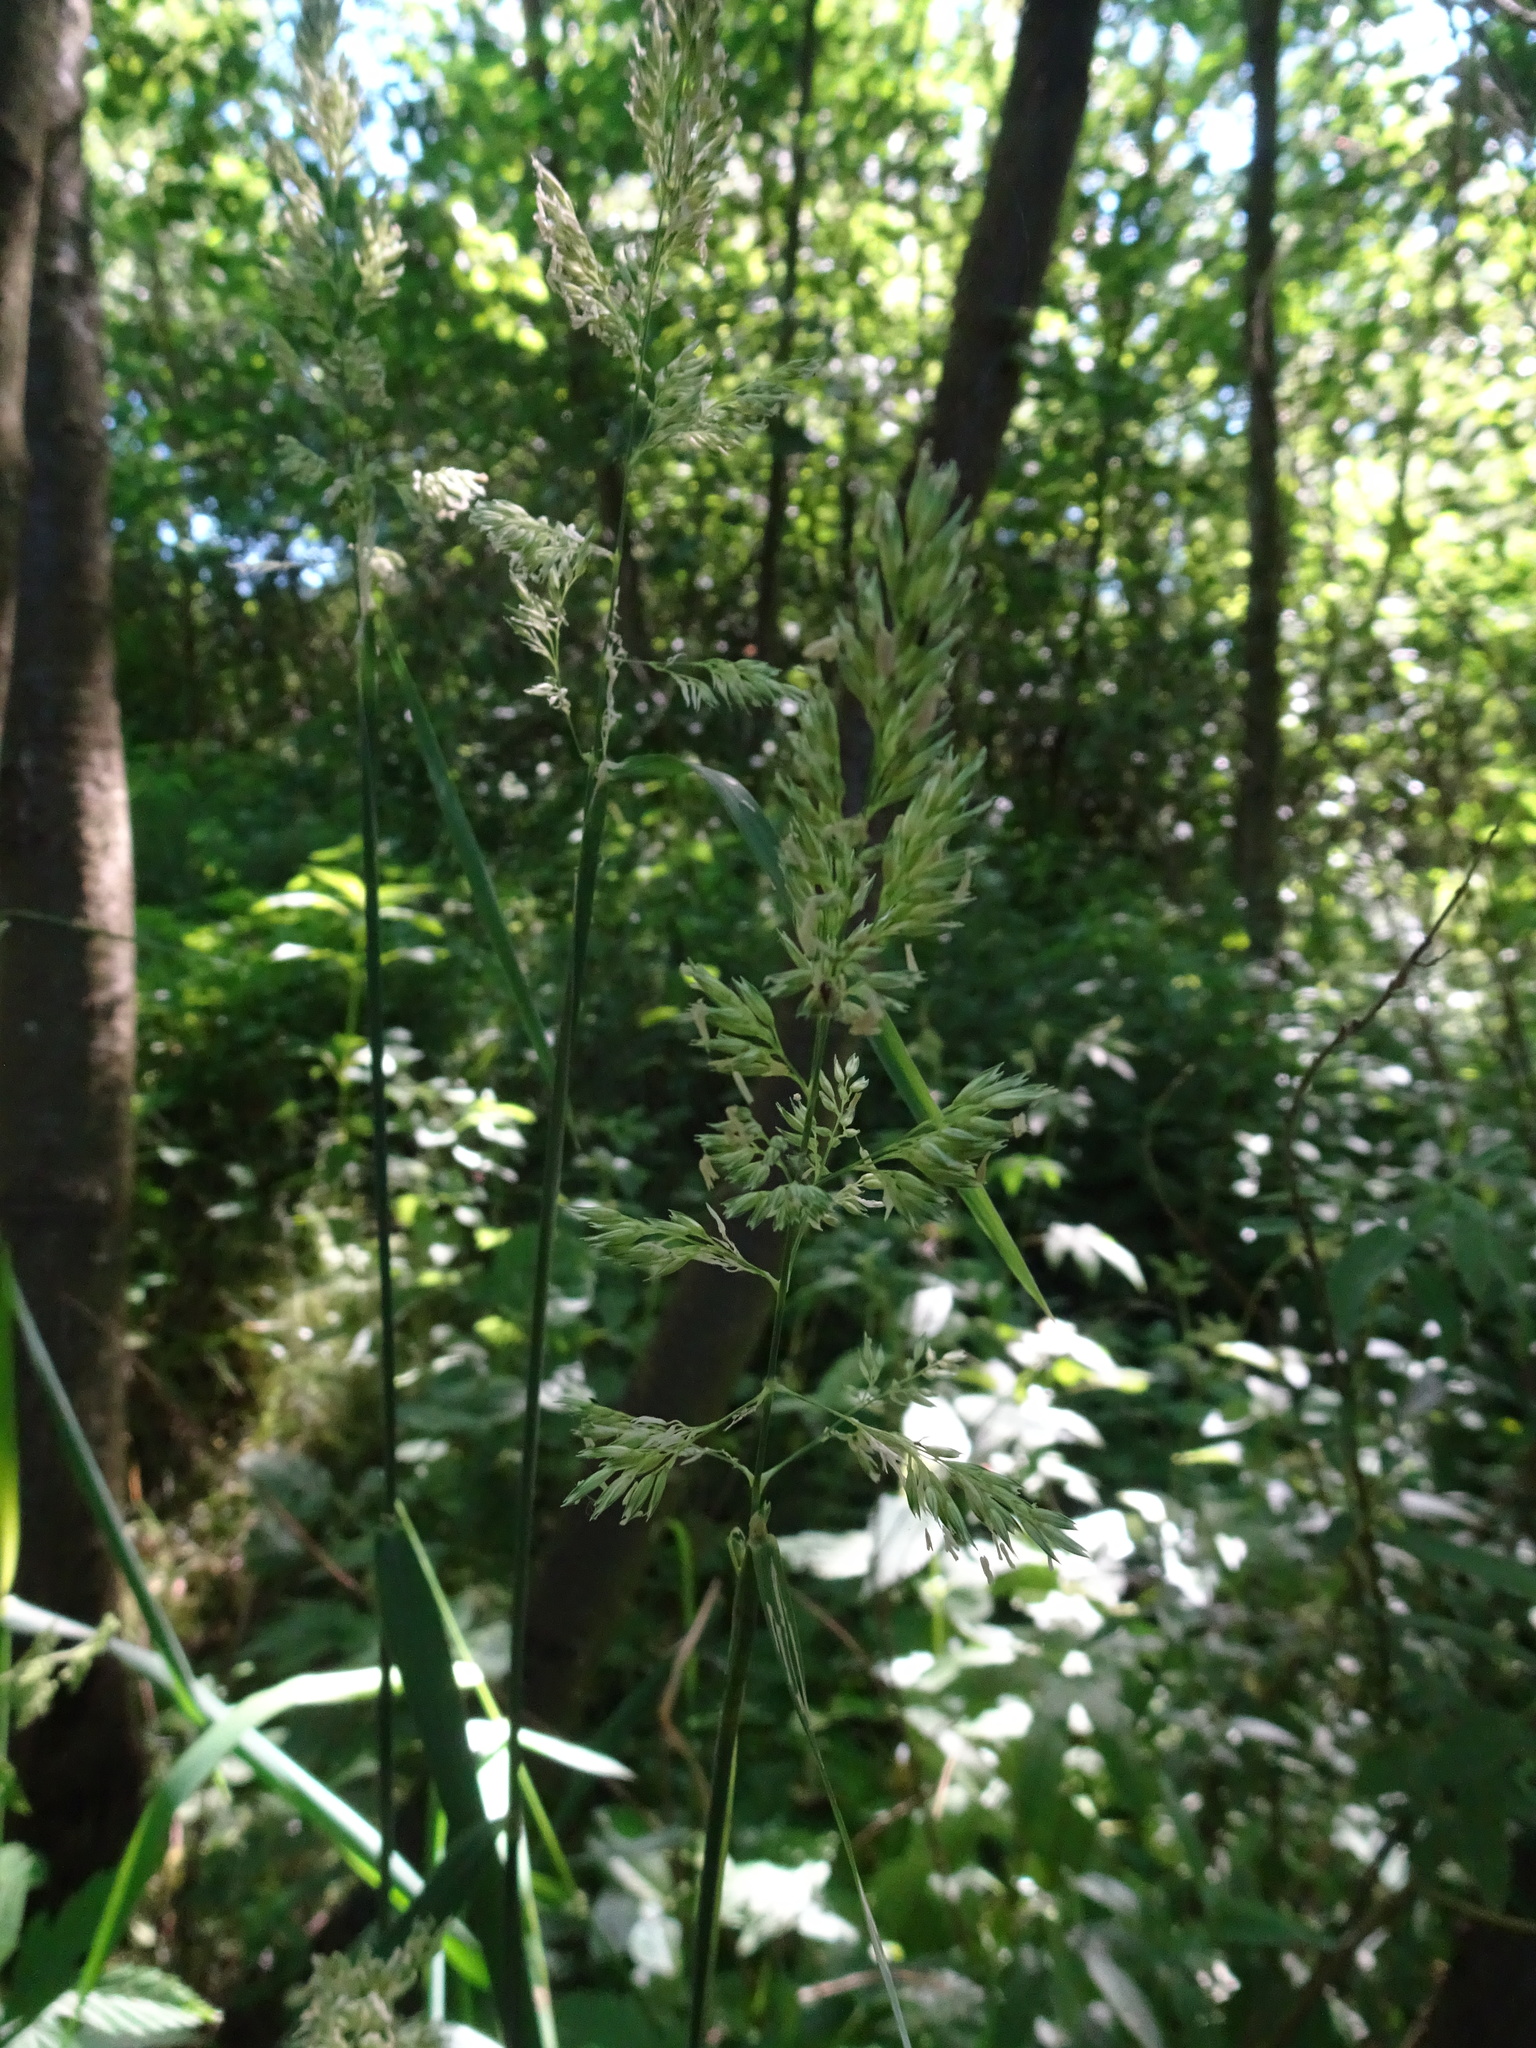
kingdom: Plantae
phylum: Tracheophyta
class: Liliopsida
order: Poales
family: Poaceae
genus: Phalaris
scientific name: Phalaris arundinacea
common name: Reed canary-grass
